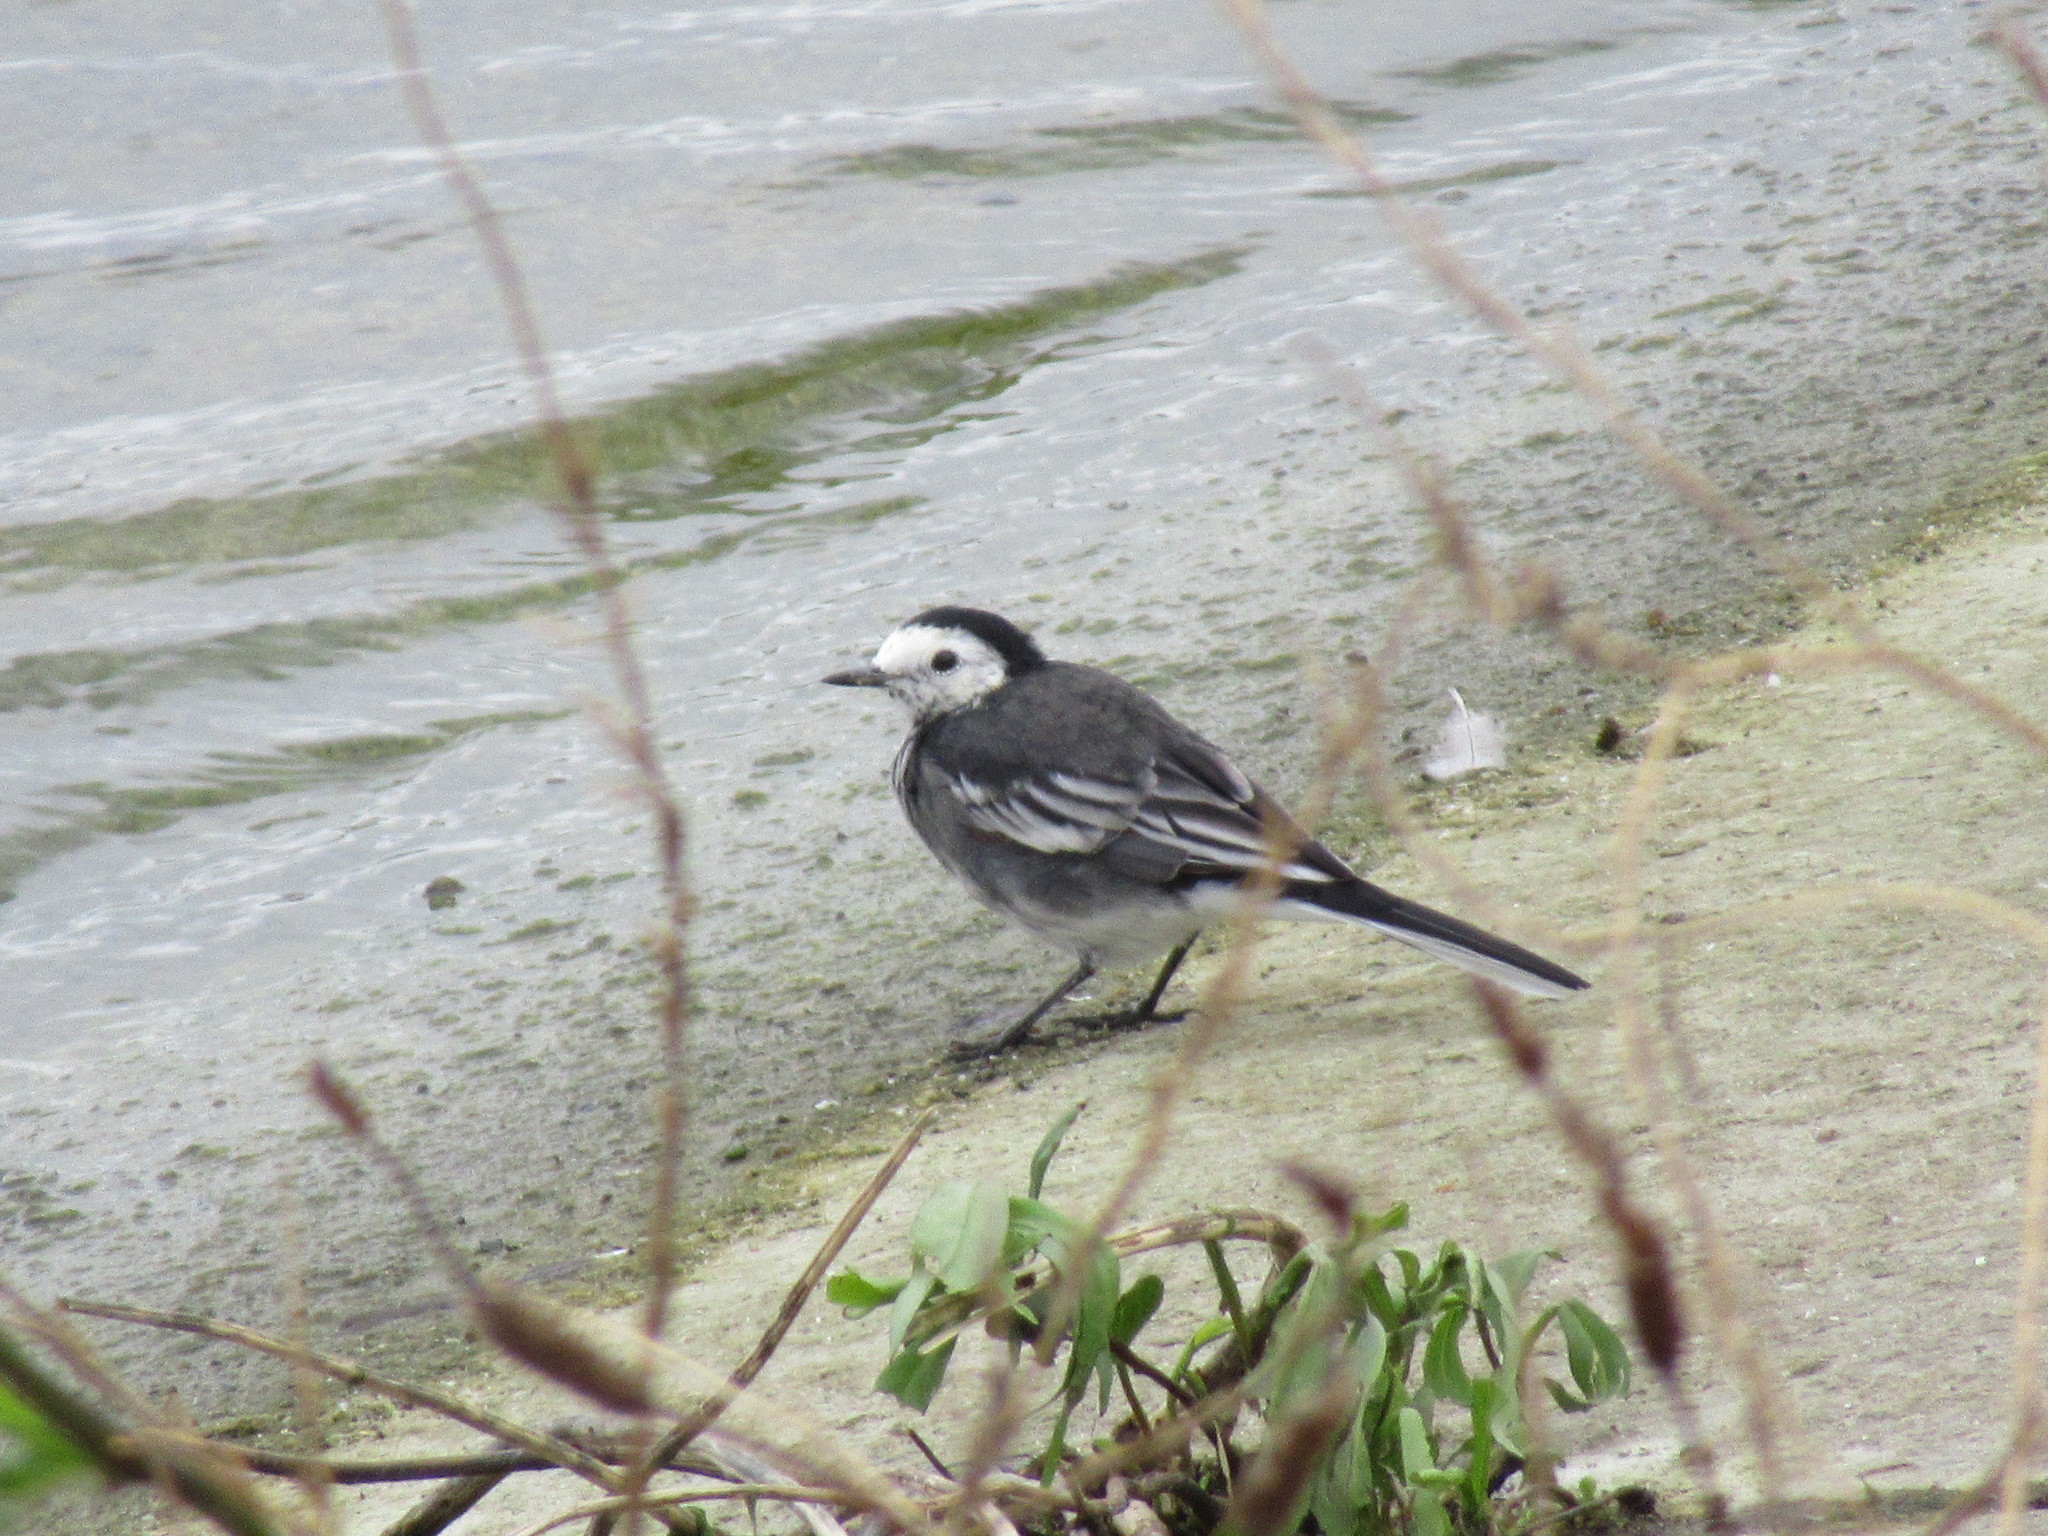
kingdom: Animalia
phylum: Chordata
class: Aves
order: Passeriformes
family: Motacillidae
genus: Motacilla
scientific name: Motacilla alba
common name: White wagtail
